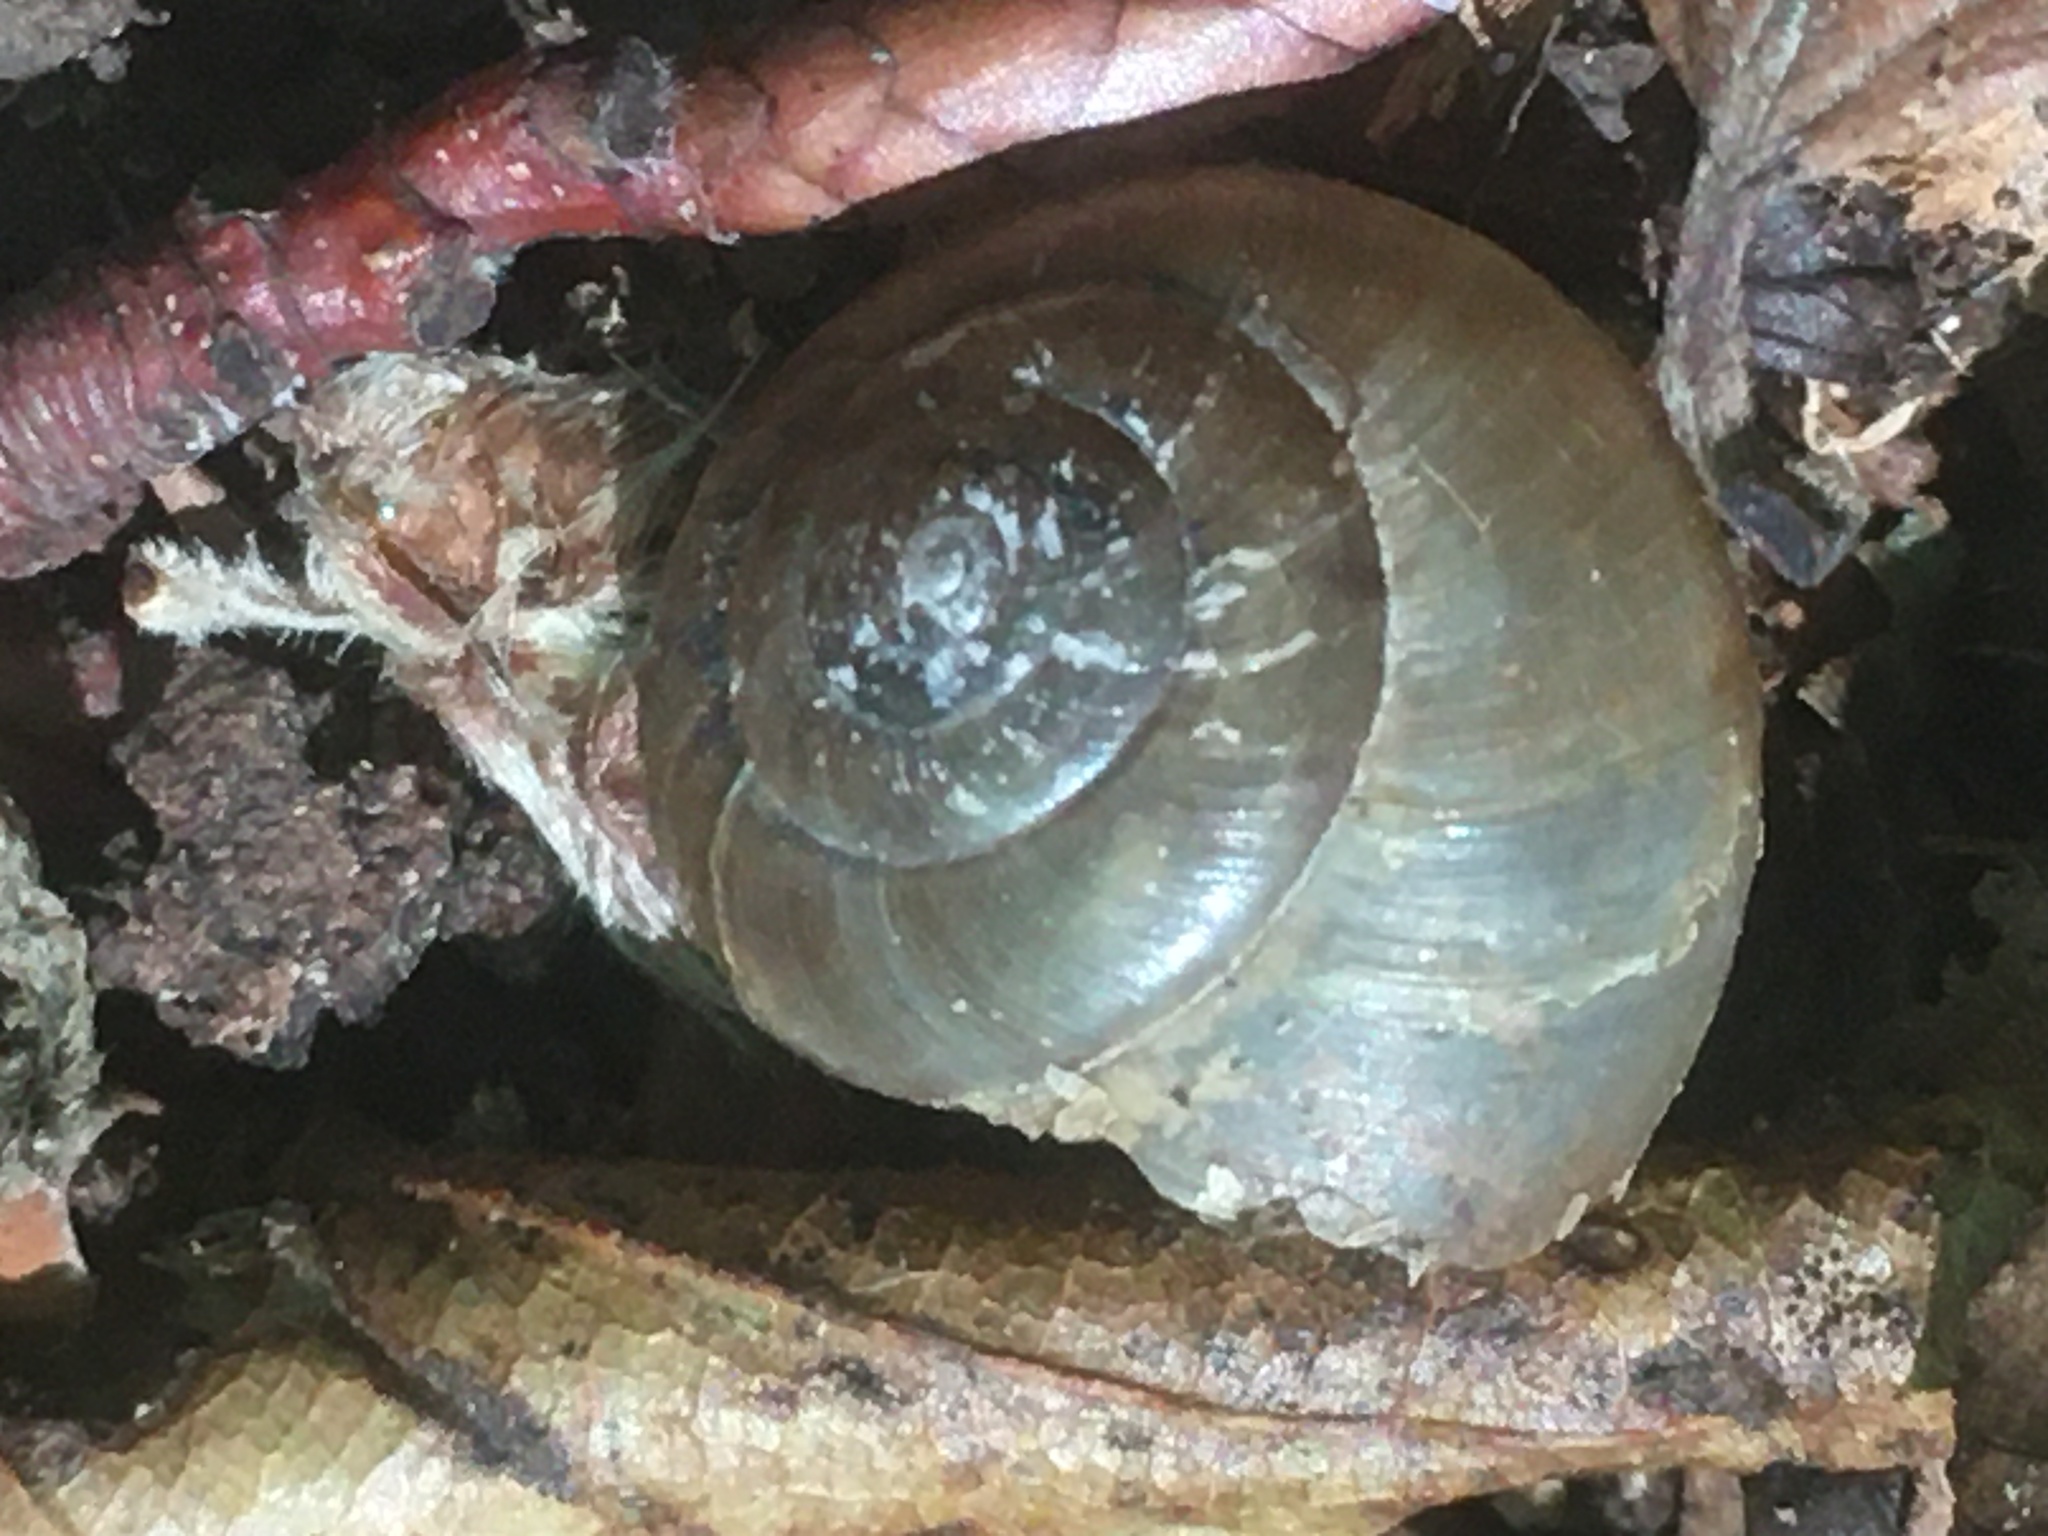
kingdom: Animalia
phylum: Mollusca
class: Gastropoda
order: Stylommatophora
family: Hygromiidae
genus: Monacha
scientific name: Monacha fruticola
